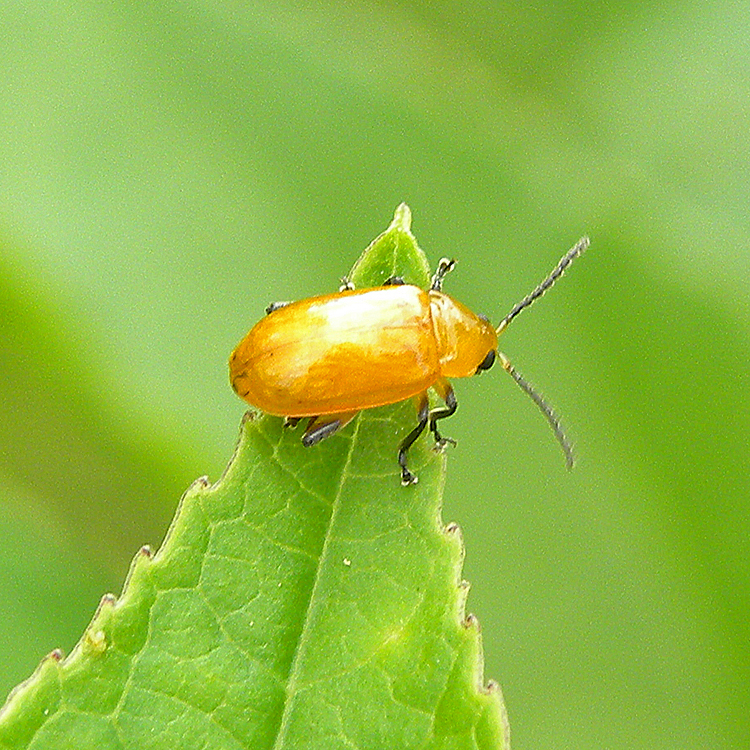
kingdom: Animalia
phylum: Arthropoda
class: Insecta
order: Coleoptera
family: Chrysomelidae
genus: Parchicola
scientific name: Parchicola tibialis
